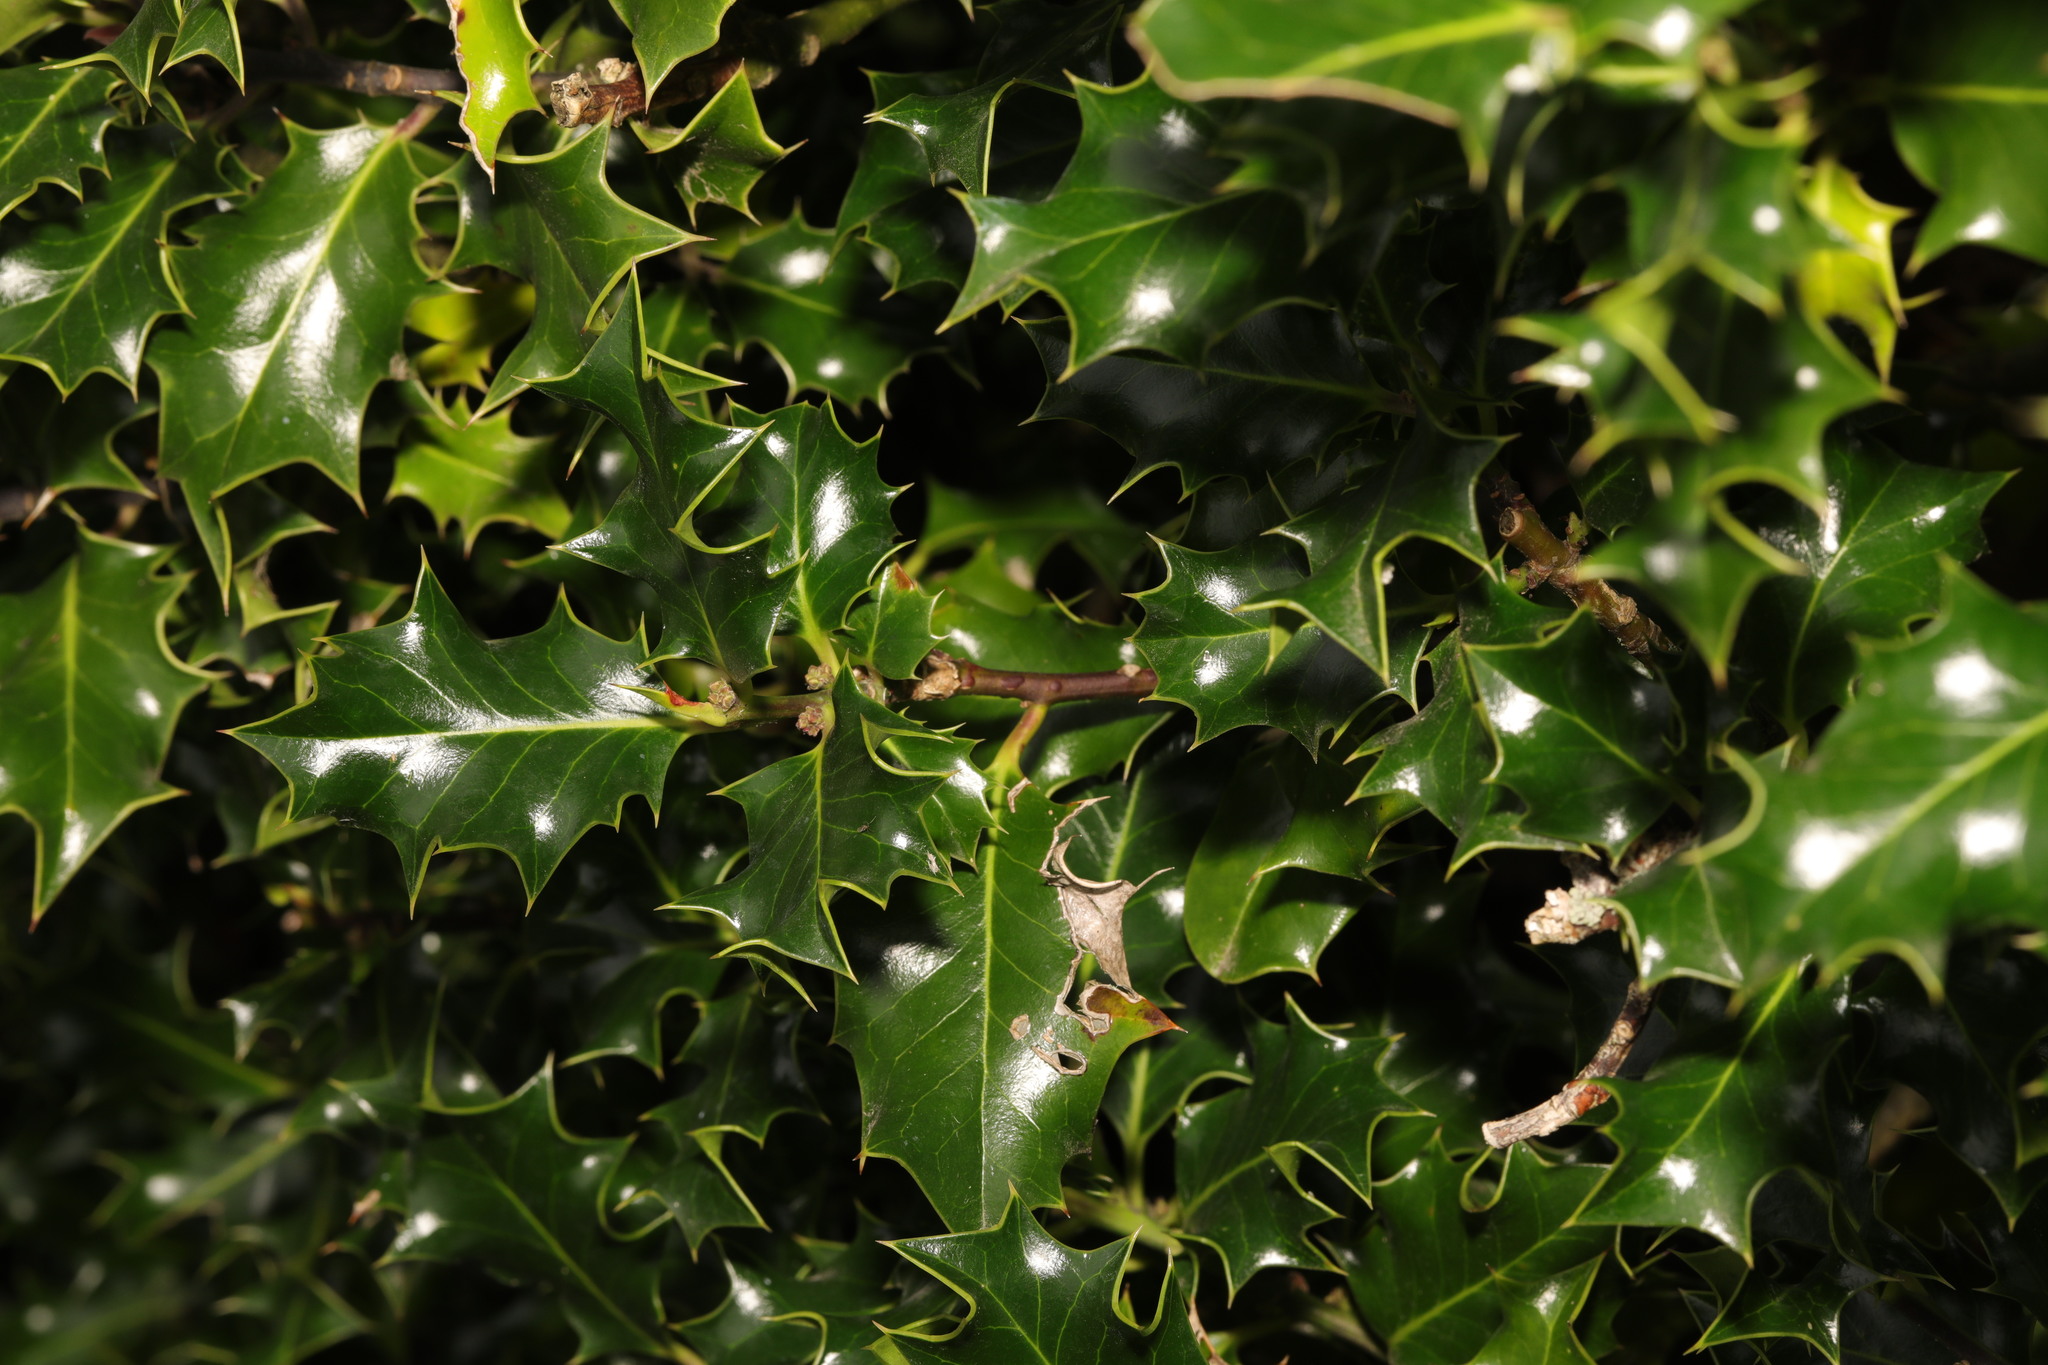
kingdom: Plantae
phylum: Tracheophyta
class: Magnoliopsida
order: Aquifoliales
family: Aquifoliaceae
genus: Ilex
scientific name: Ilex aquifolium
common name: English holly
